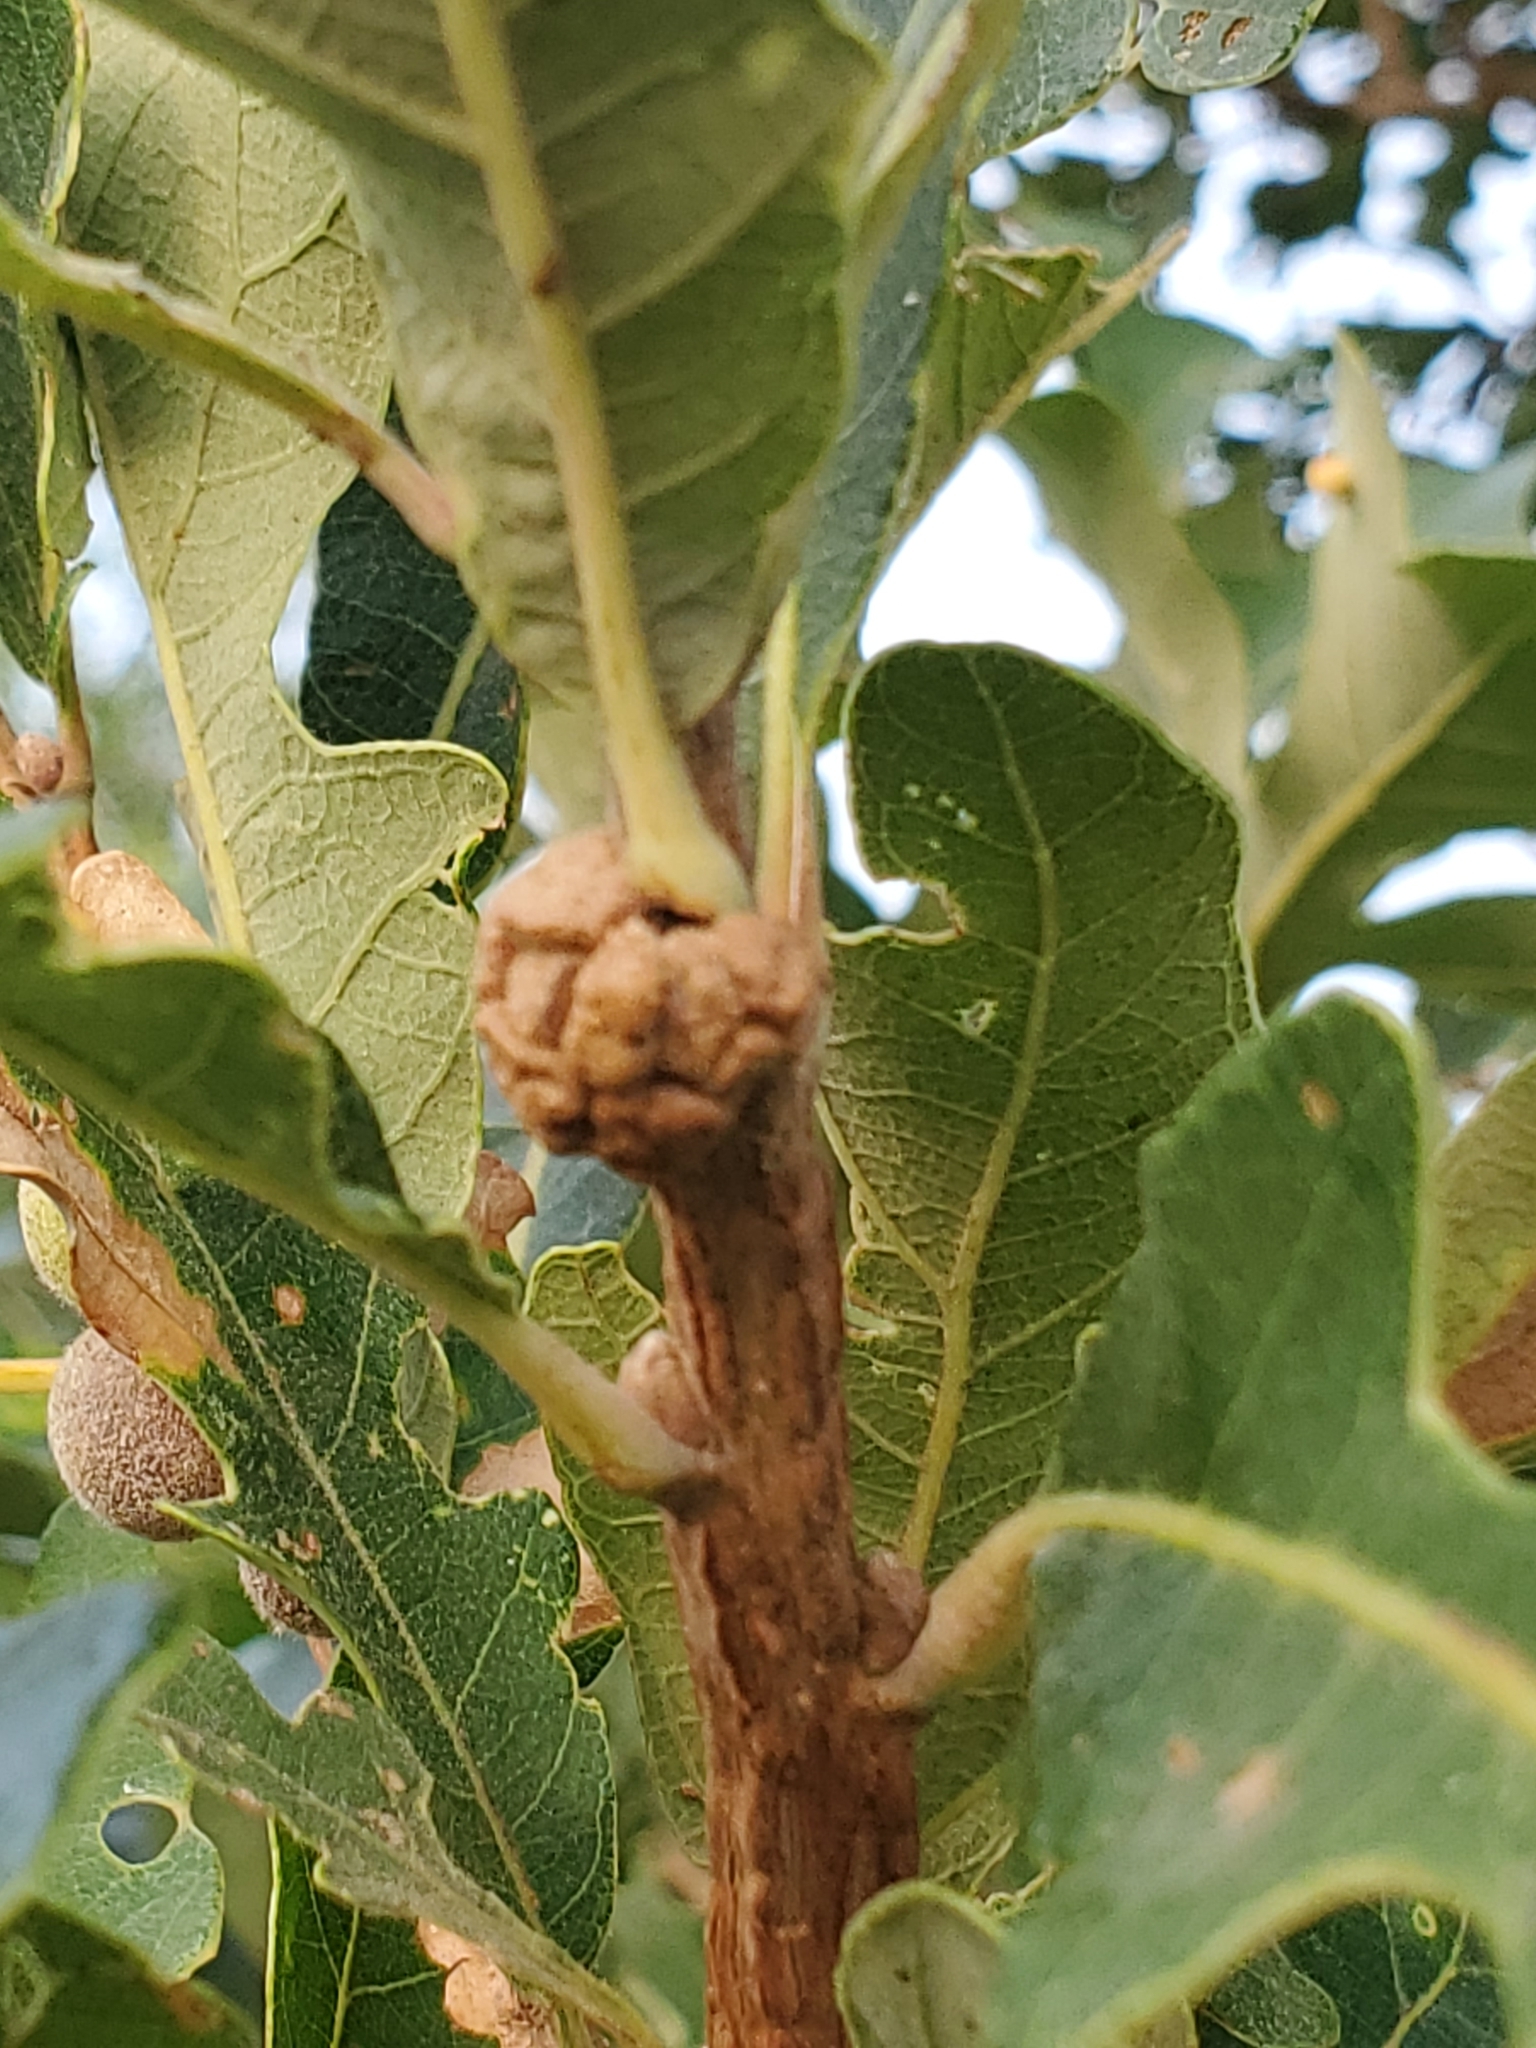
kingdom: Animalia
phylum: Arthropoda
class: Insecta
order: Hymenoptera
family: Cynipidae
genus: Andricus
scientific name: Andricus
